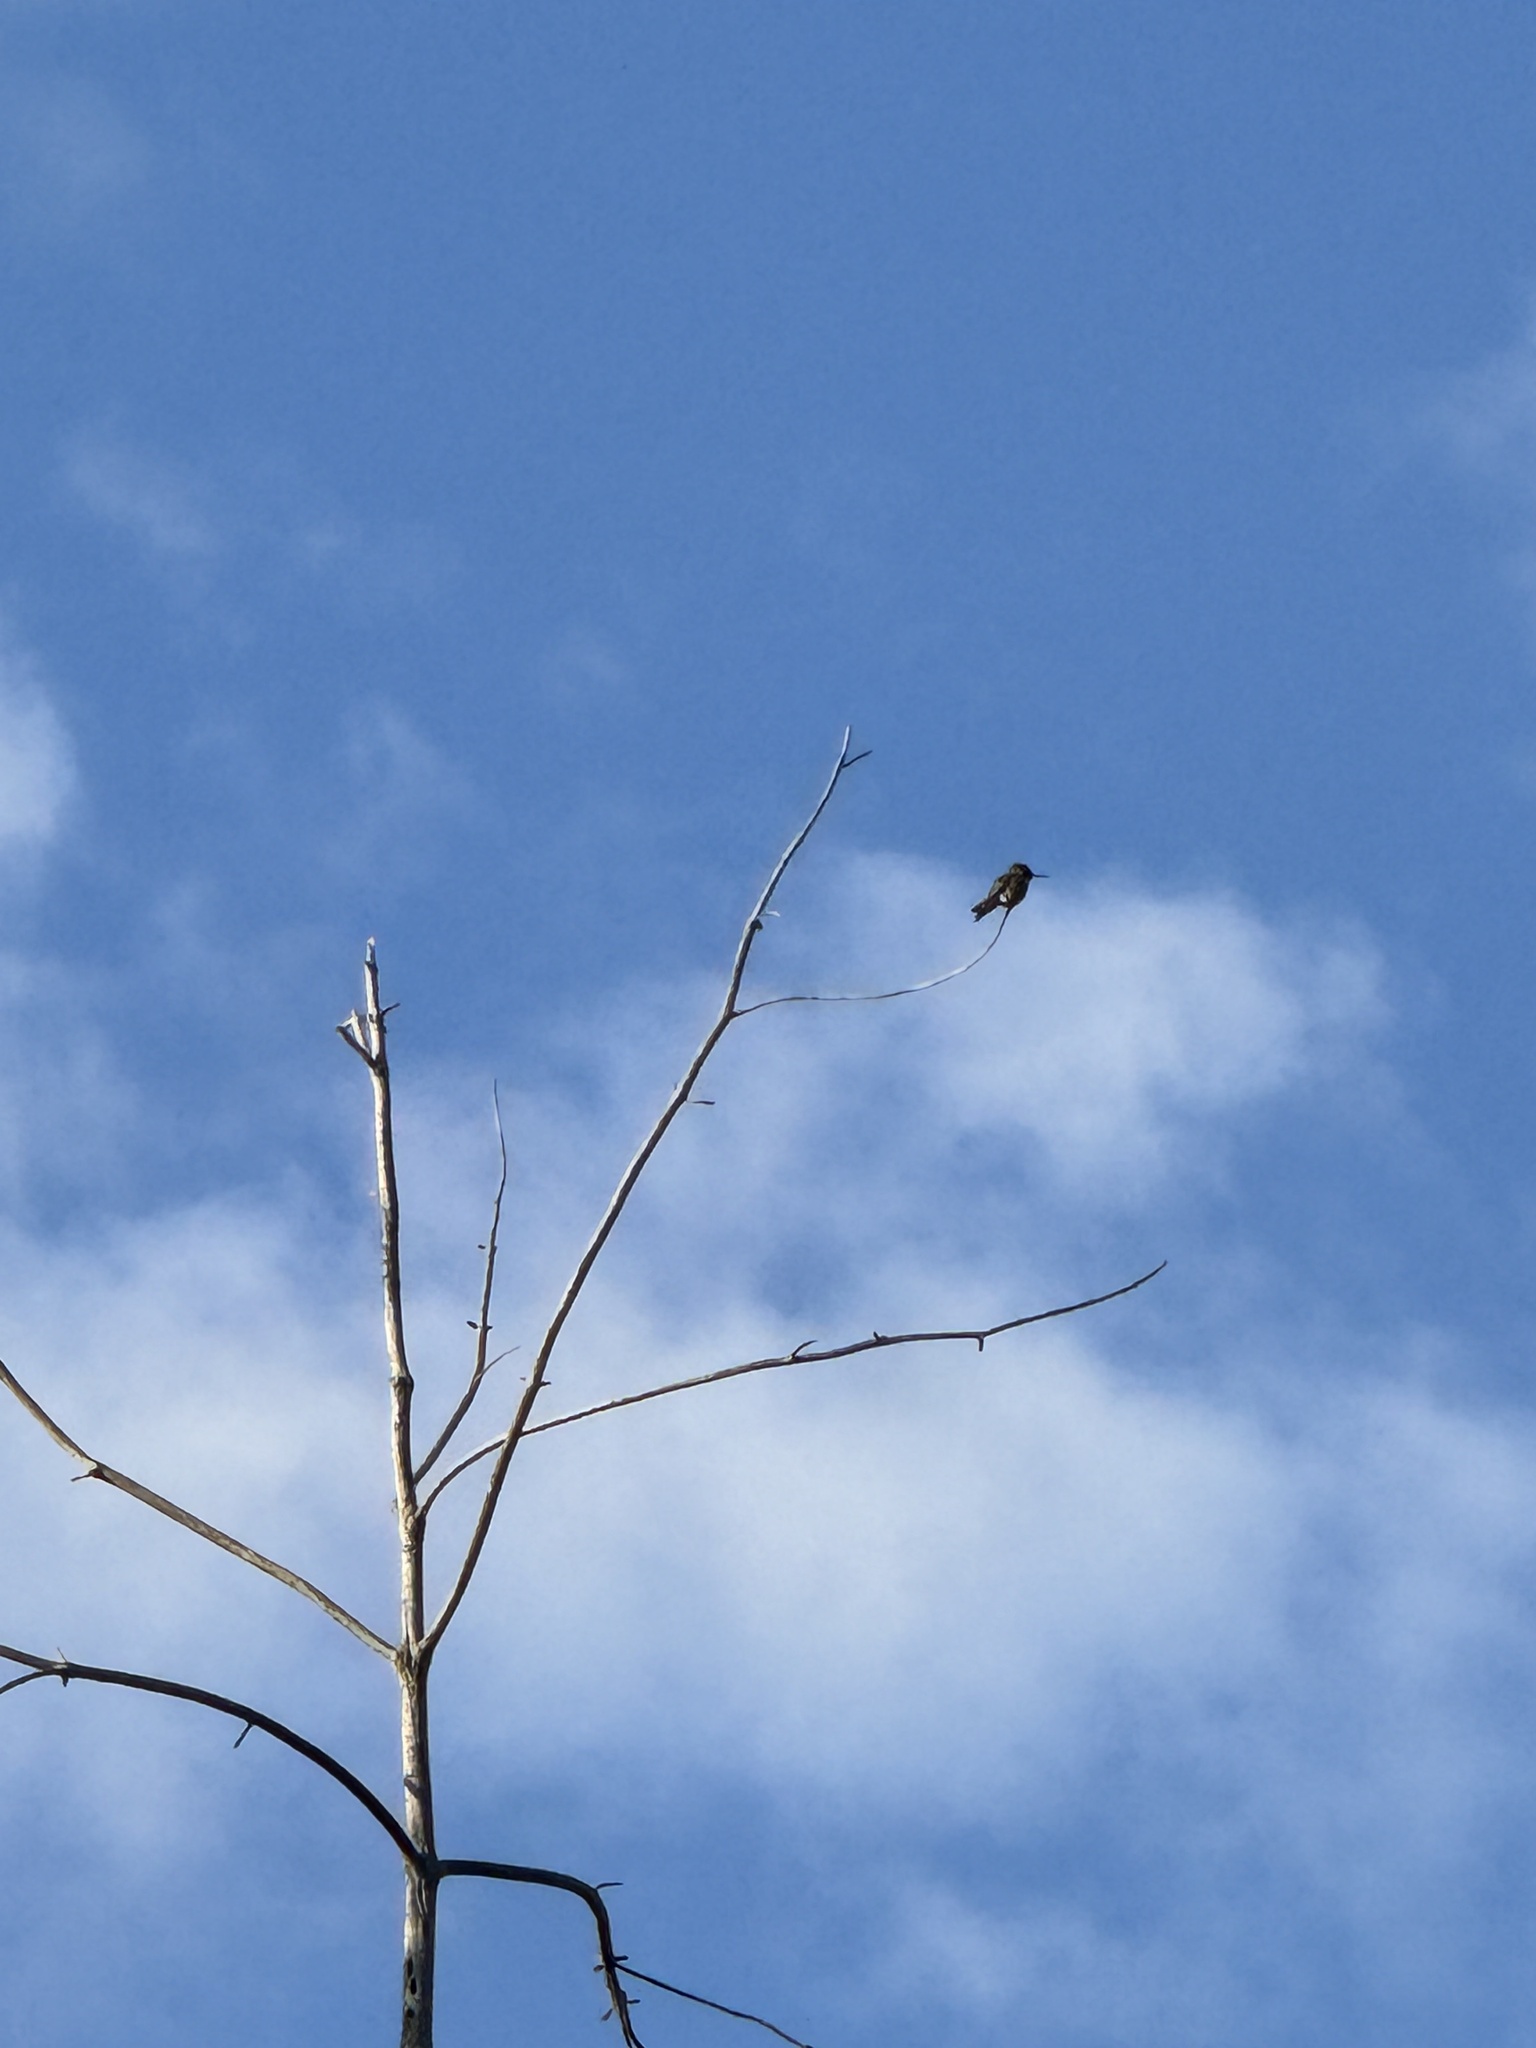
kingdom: Animalia
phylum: Chordata
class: Aves
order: Apodiformes
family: Trochilidae
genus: Calypte
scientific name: Calypte anna
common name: Anna's hummingbird
